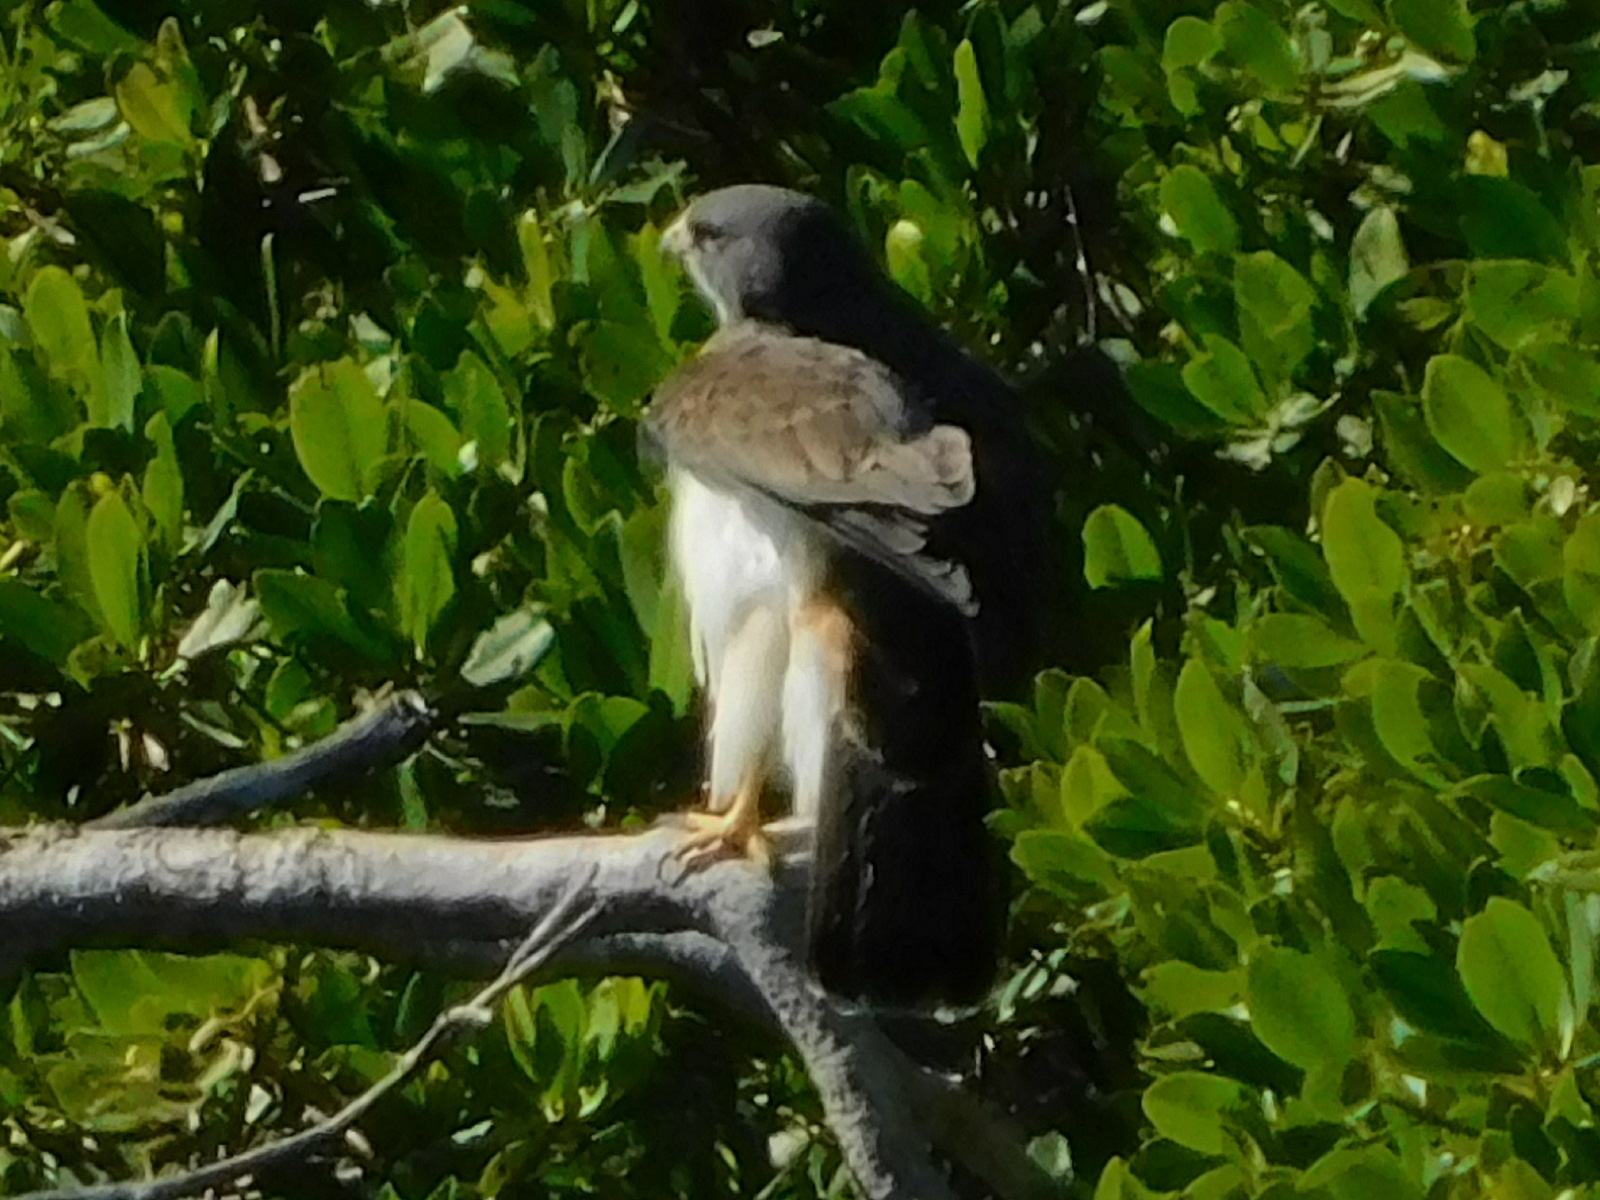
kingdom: Animalia
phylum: Chordata
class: Aves
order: Accipitriformes
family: Accipitridae
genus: Buteo
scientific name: Buteo brachyurus
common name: Short-tailed hawk
